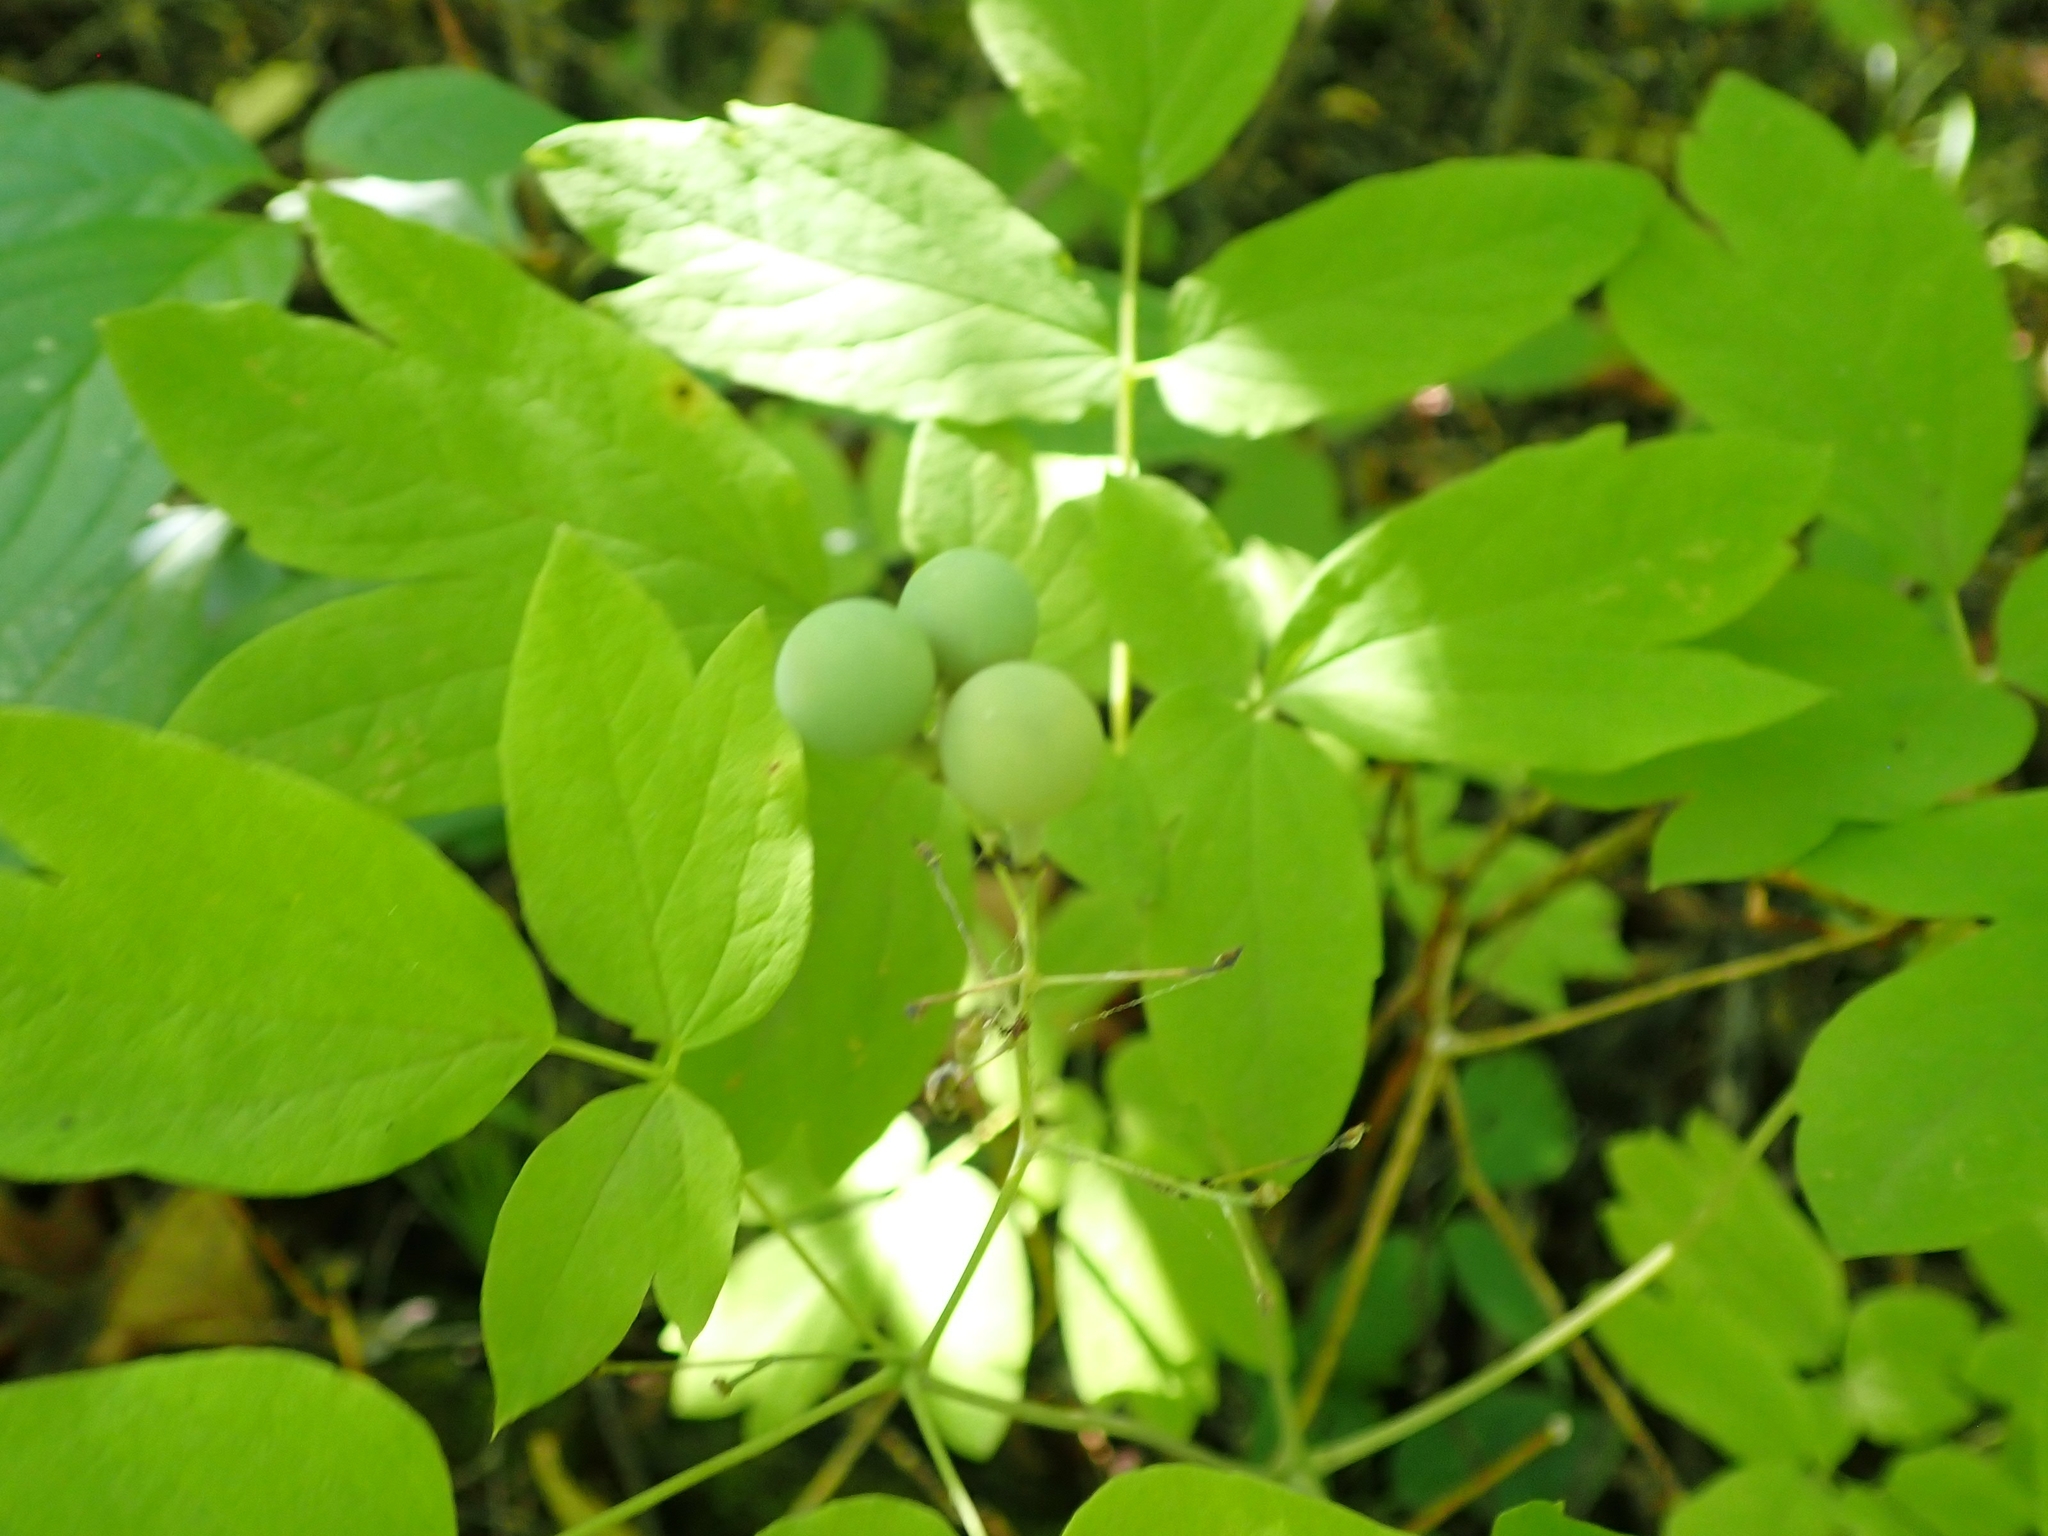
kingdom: Plantae
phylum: Tracheophyta
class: Magnoliopsida
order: Ranunculales
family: Berberidaceae
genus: Caulophyllum
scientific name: Caulophyllum thalictroides
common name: Blue cohosh
